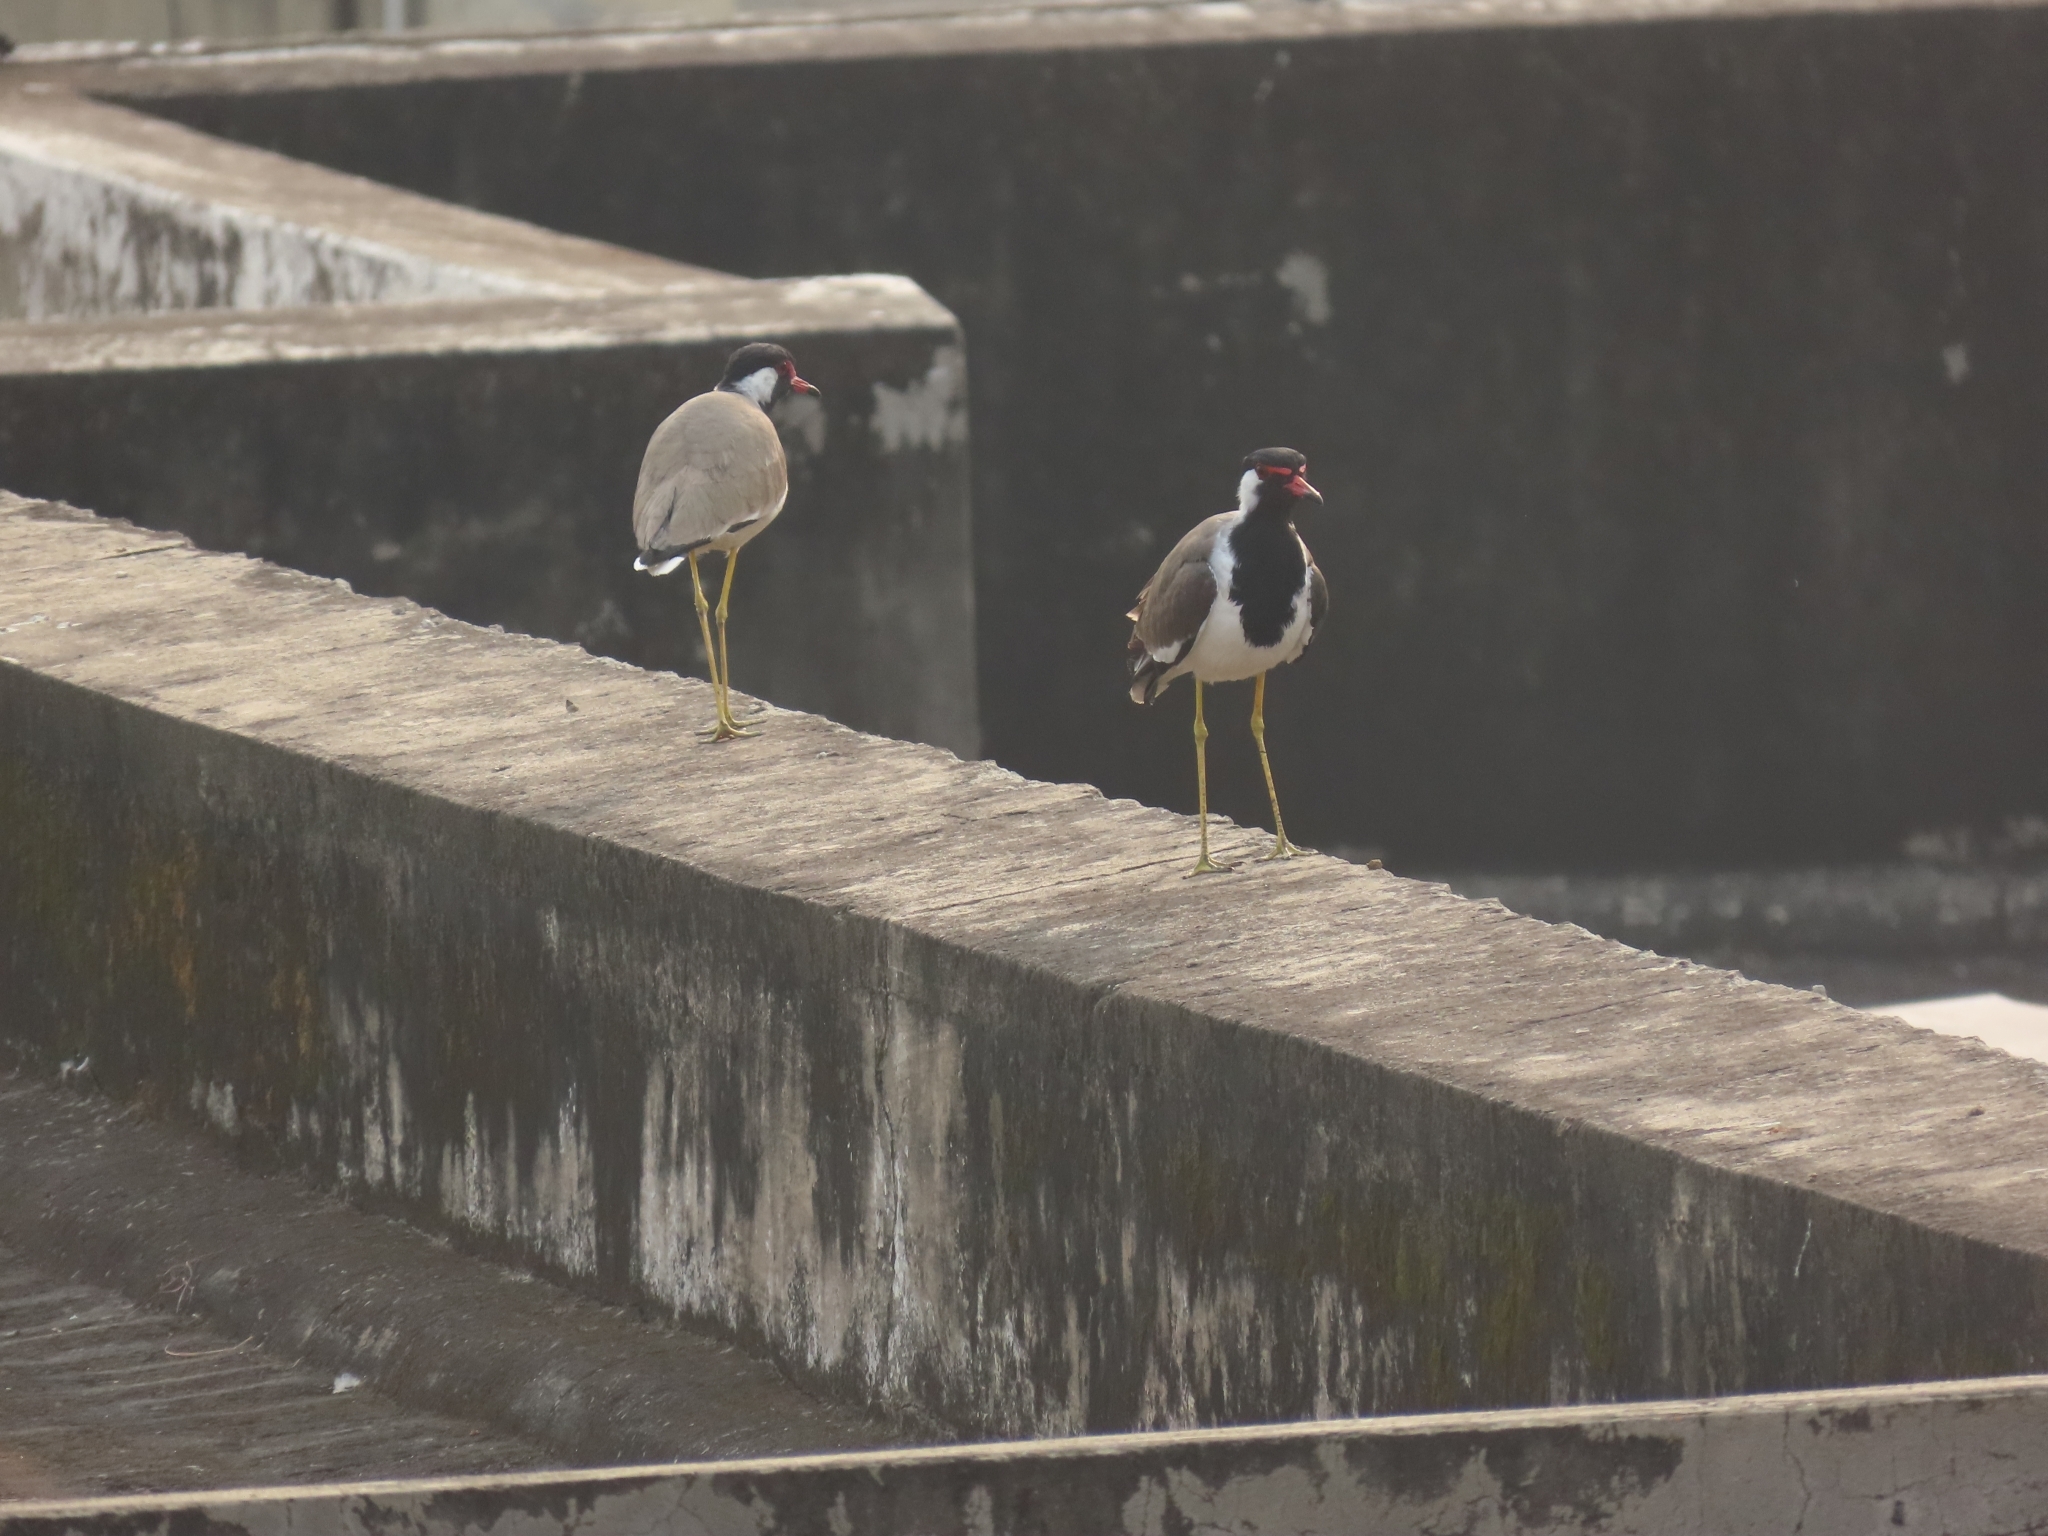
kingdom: Animalia
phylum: Chordata
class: Aves
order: Charadriiformes
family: Charadriidae
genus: Vanellus
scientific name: Vanellus indicus
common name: Red-wattled lapwing
